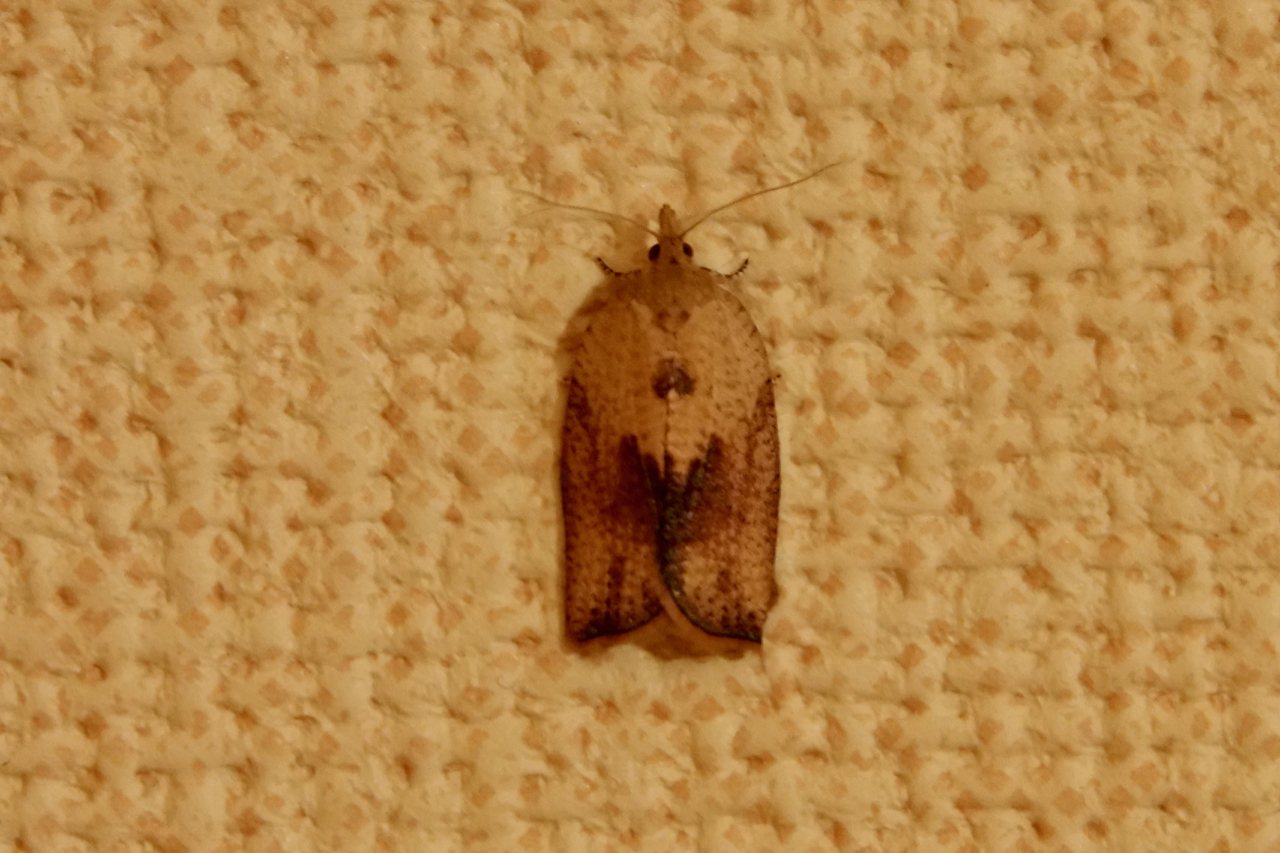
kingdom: Animalia
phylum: Arthropoda
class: Insecta
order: Lepidoptera
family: Tortricidae
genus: Epiphyas
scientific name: Epiphyas postvittana
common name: Light brown apple moth
